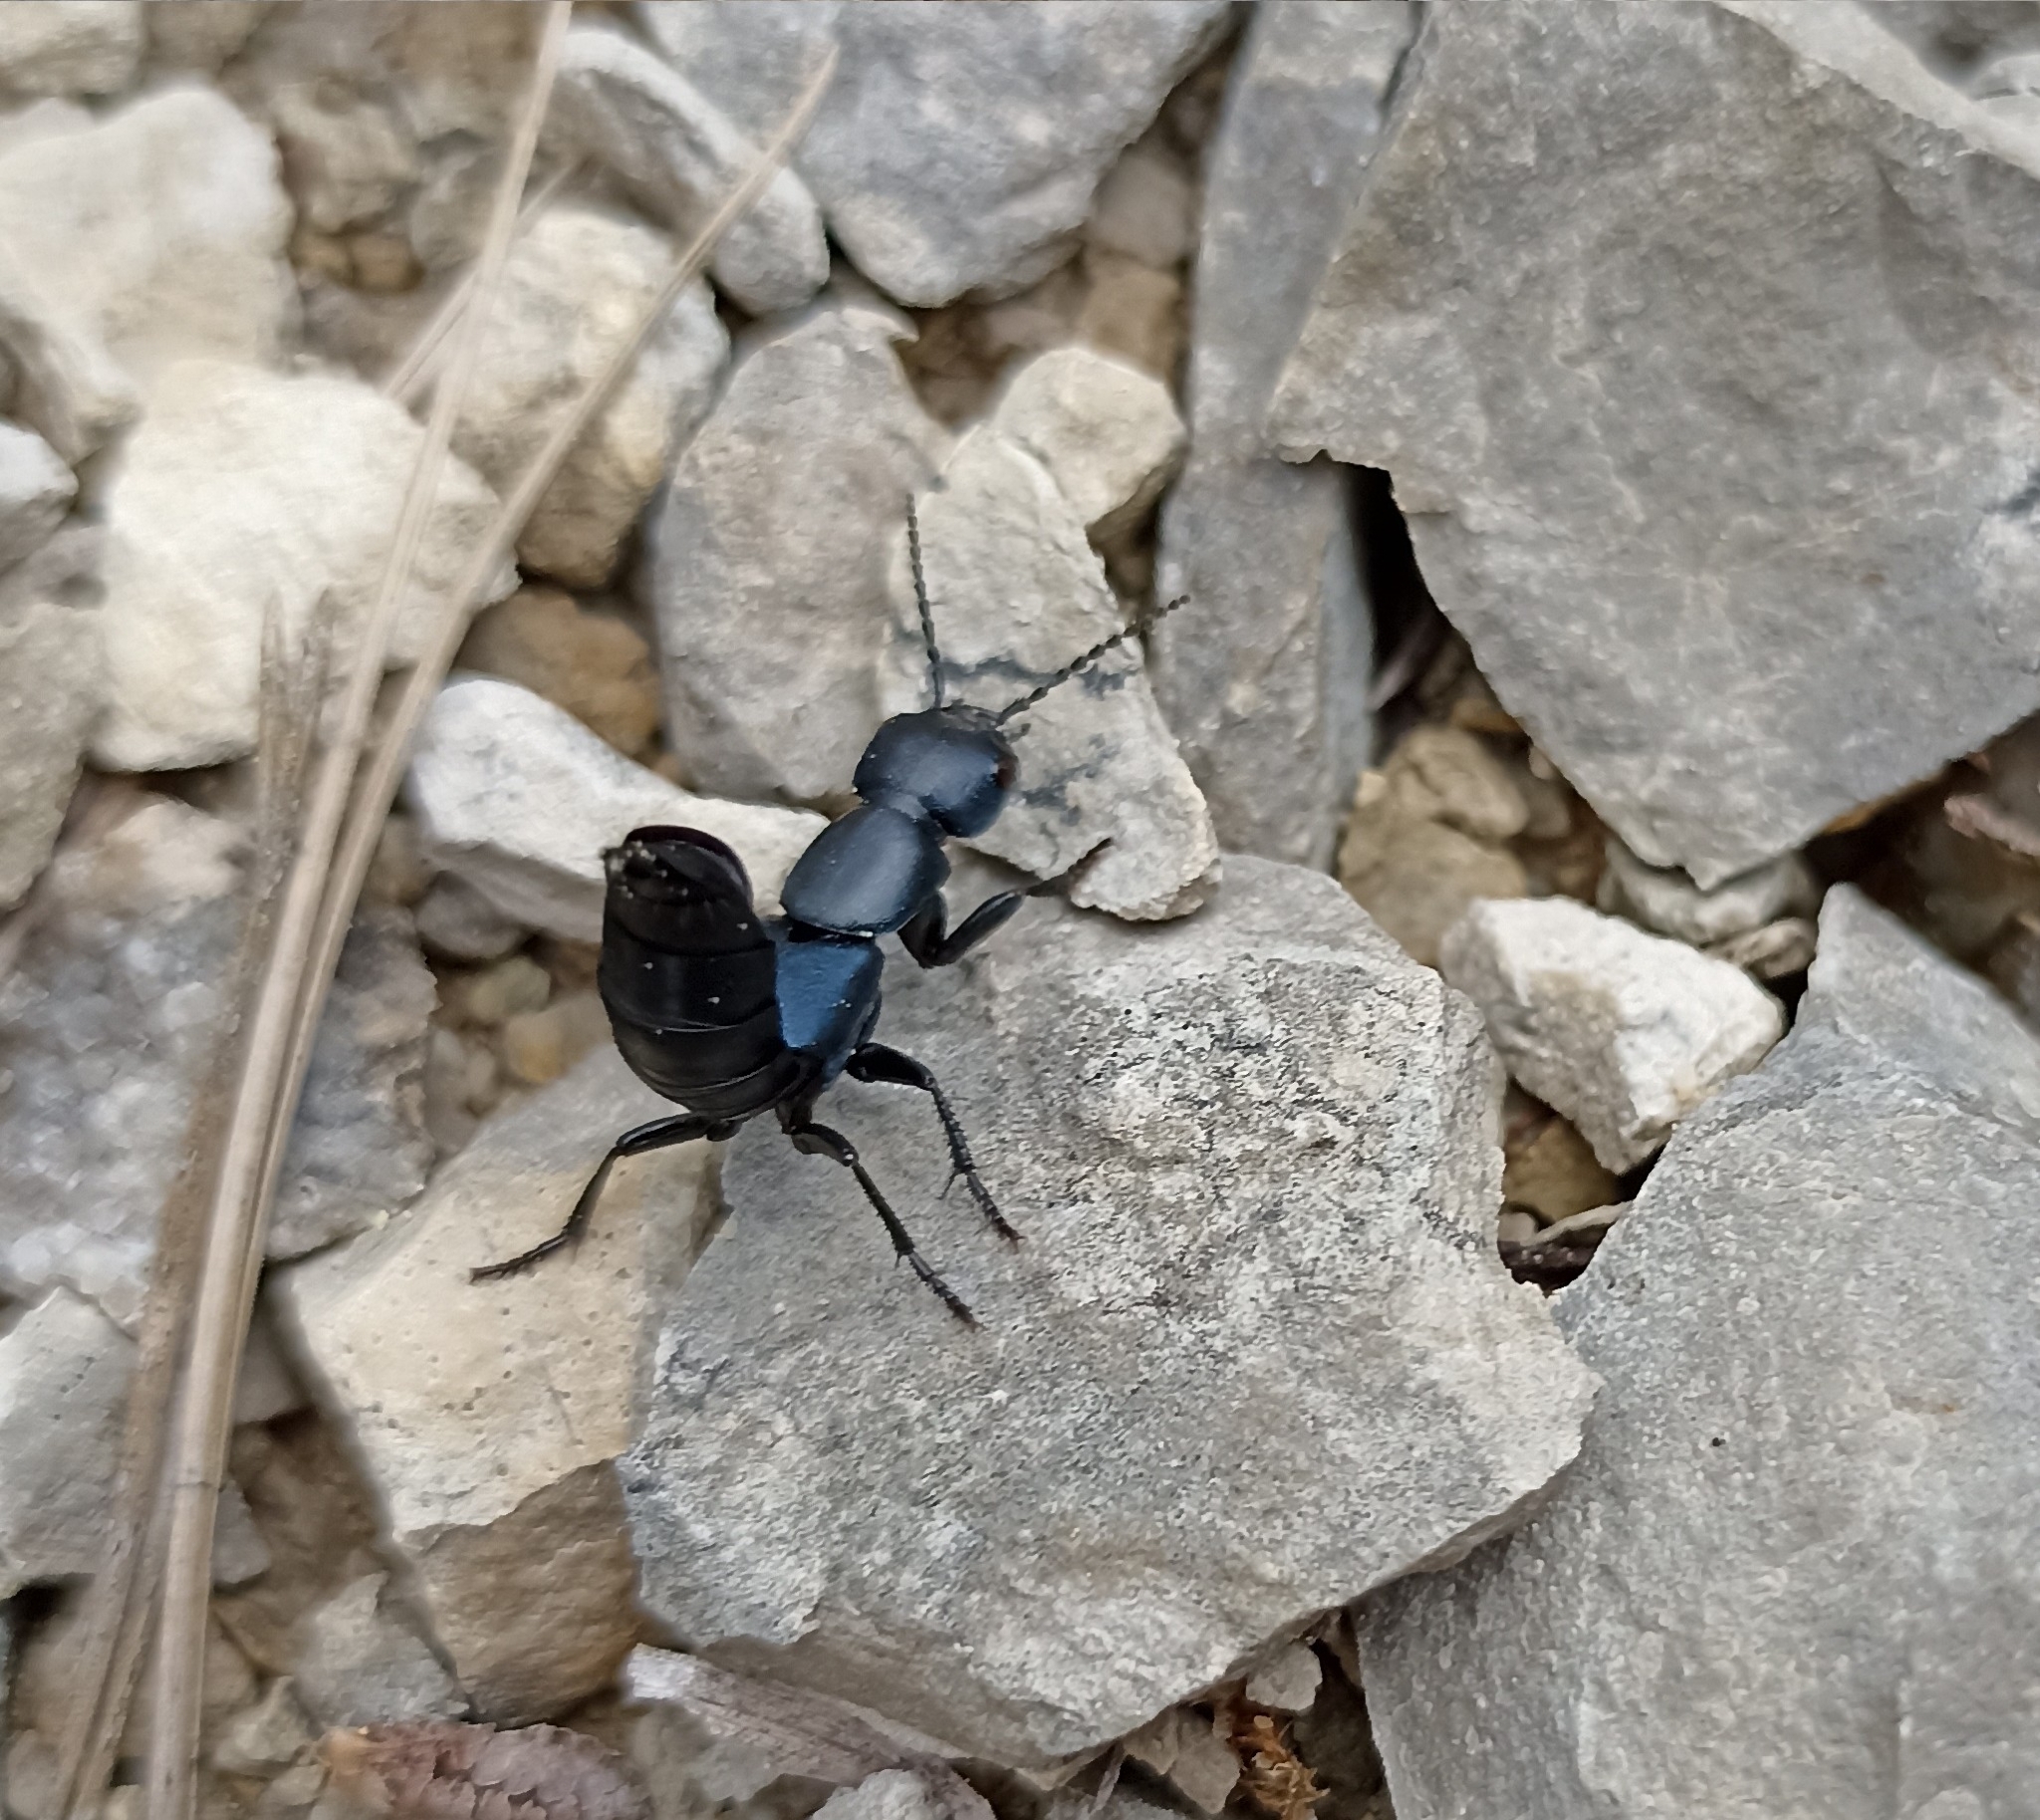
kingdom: Animalia
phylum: Arthropoda
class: Insecta
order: Coleoptera
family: Staphylinidae
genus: Ocypus
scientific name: Ocypus ophthalmicus
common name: Blue rove-beetle
